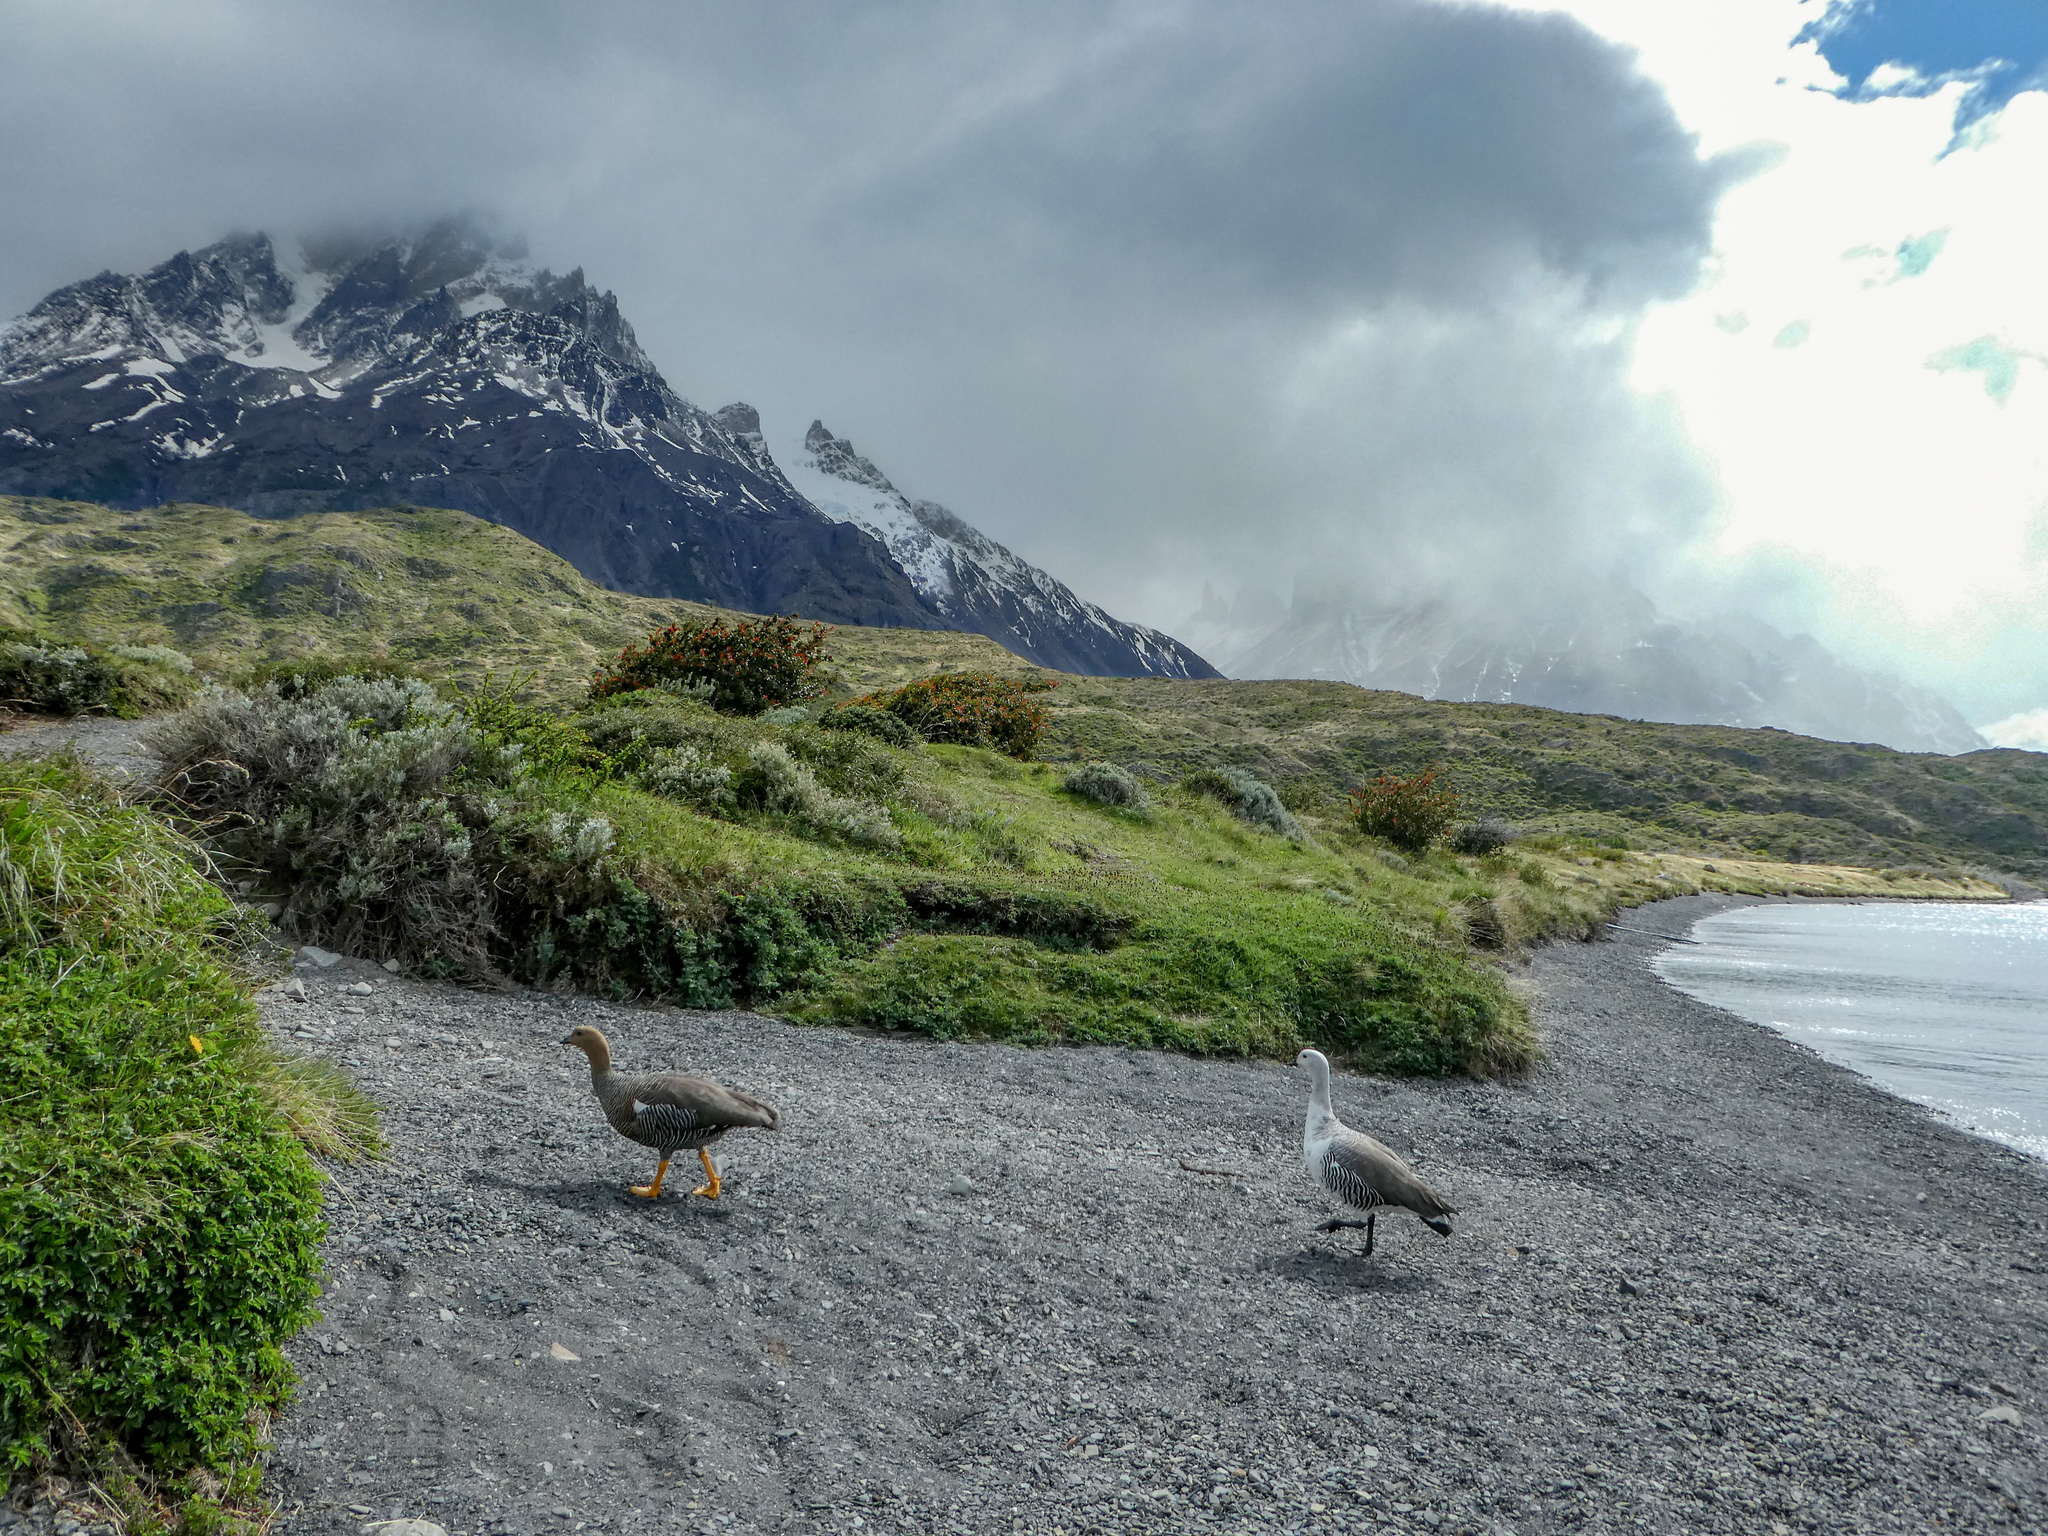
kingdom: Animalia
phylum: Chordata
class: Aves
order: Anseriformes
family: Anatidae
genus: Chloephaga
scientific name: Chloephaga picta
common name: Upland goose
